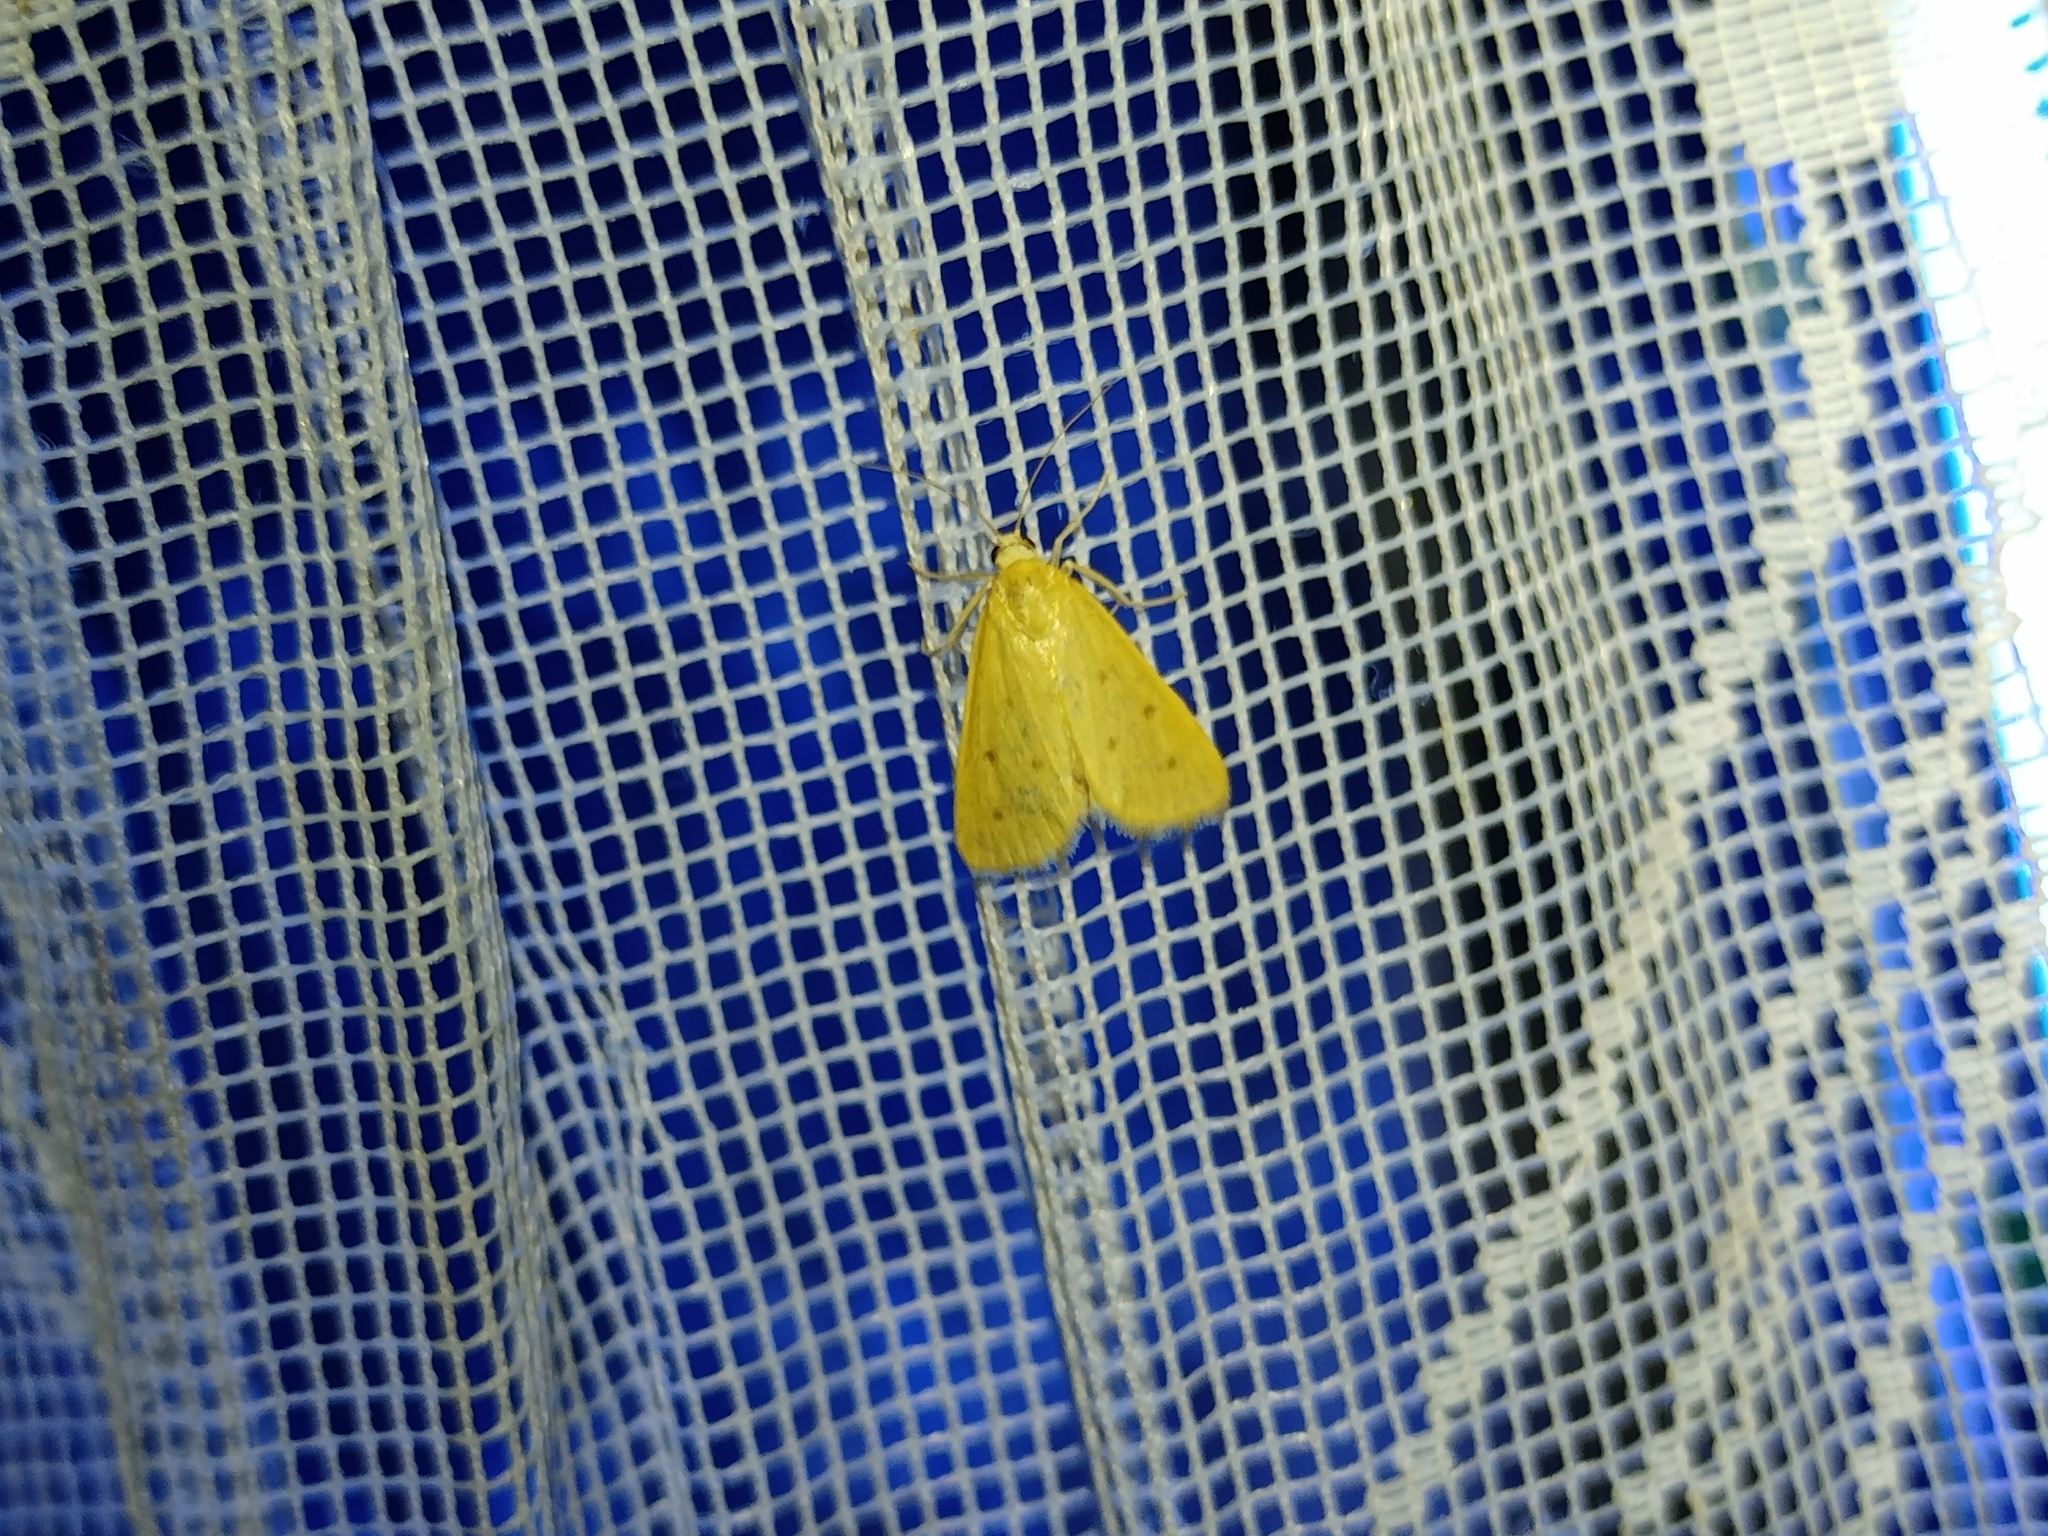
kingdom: Animalia
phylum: Arthropoda
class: Insecta
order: Lepidoptera
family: Crambidae
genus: Achyra
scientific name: Achyra nudalis
